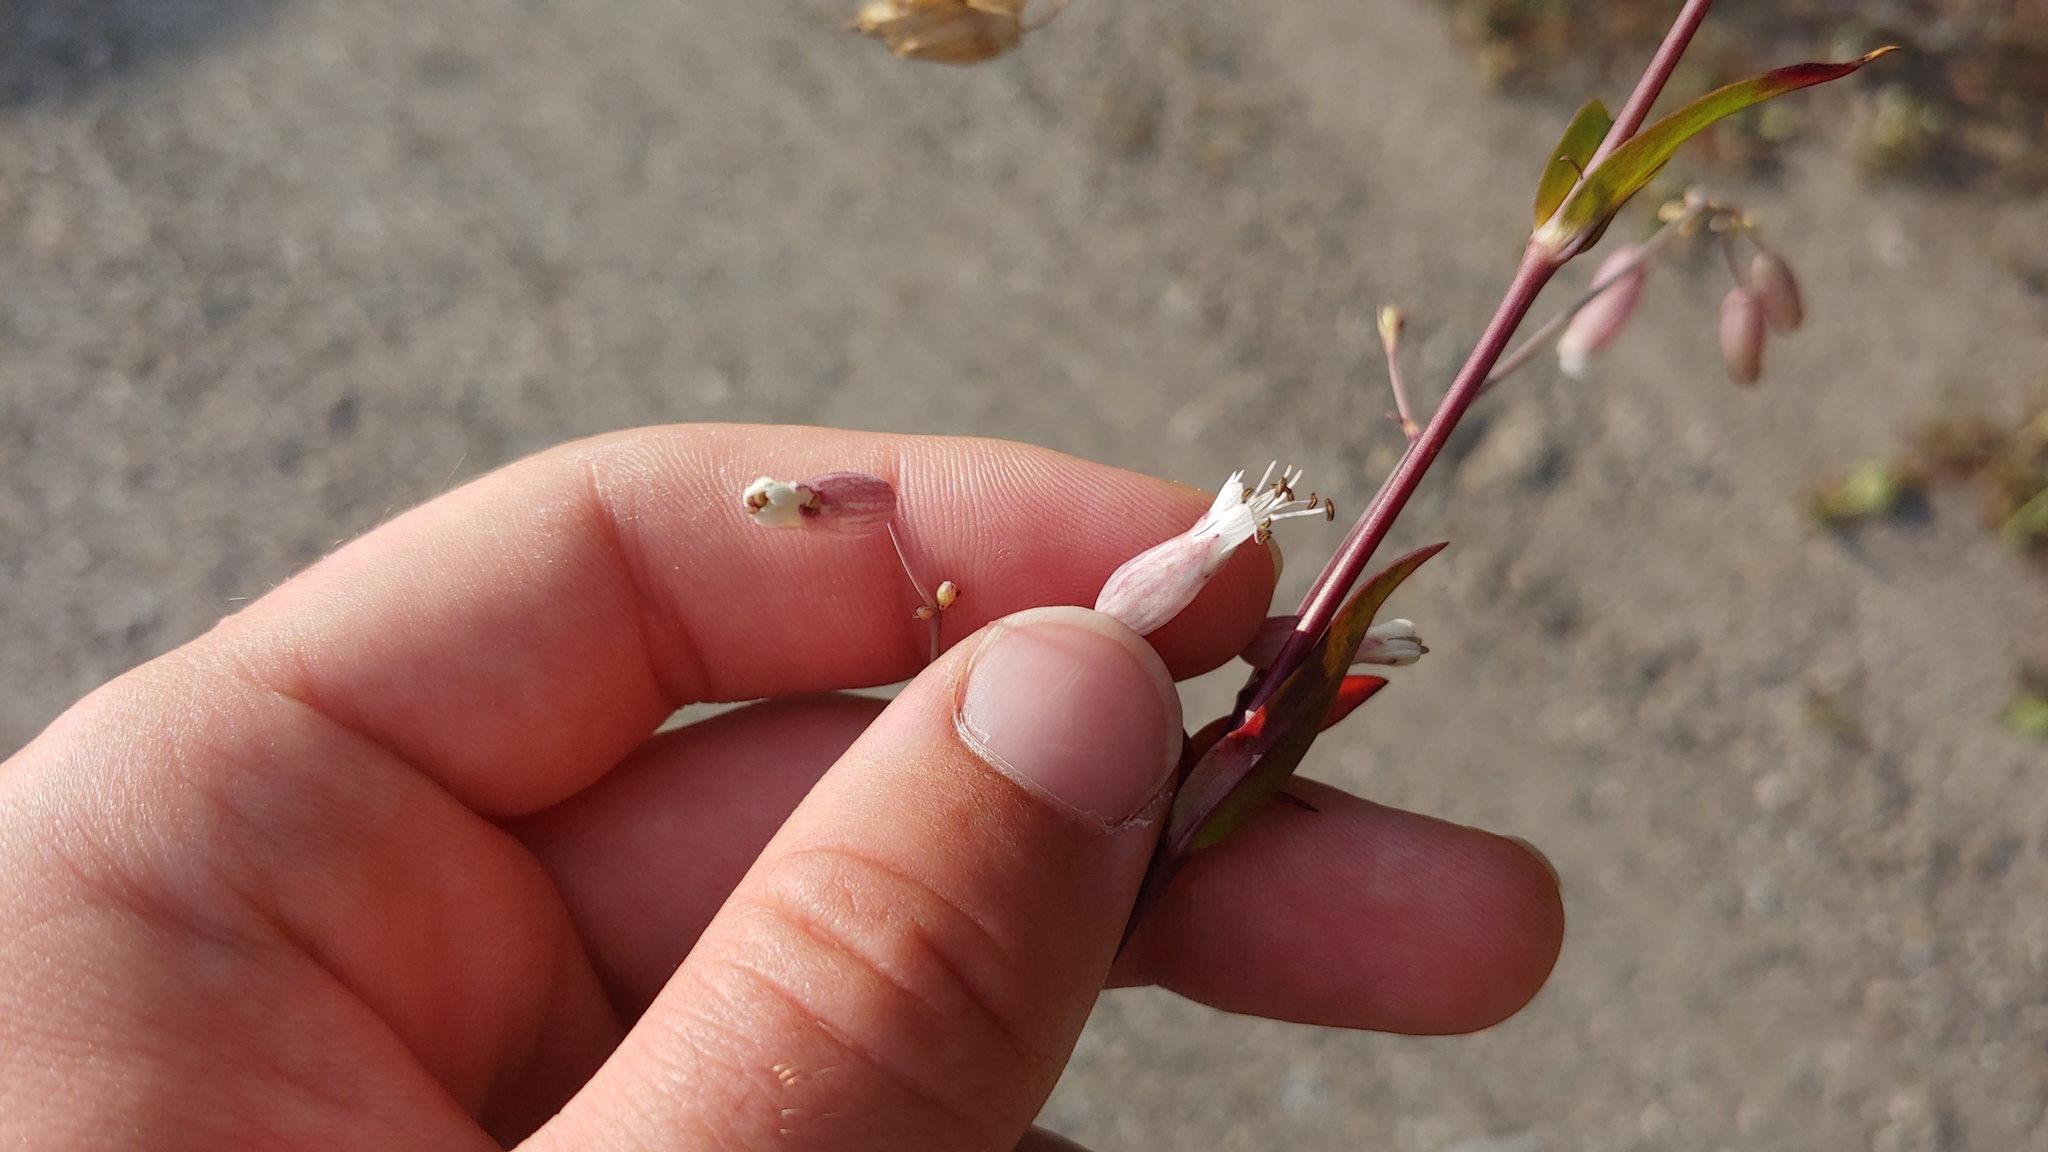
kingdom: Plantae
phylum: Tracheophyta
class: Magnoliopsida
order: Caryophyllales
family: Caryophyllaceae
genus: Silene
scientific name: Silene vulgaris
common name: Bladder campion
